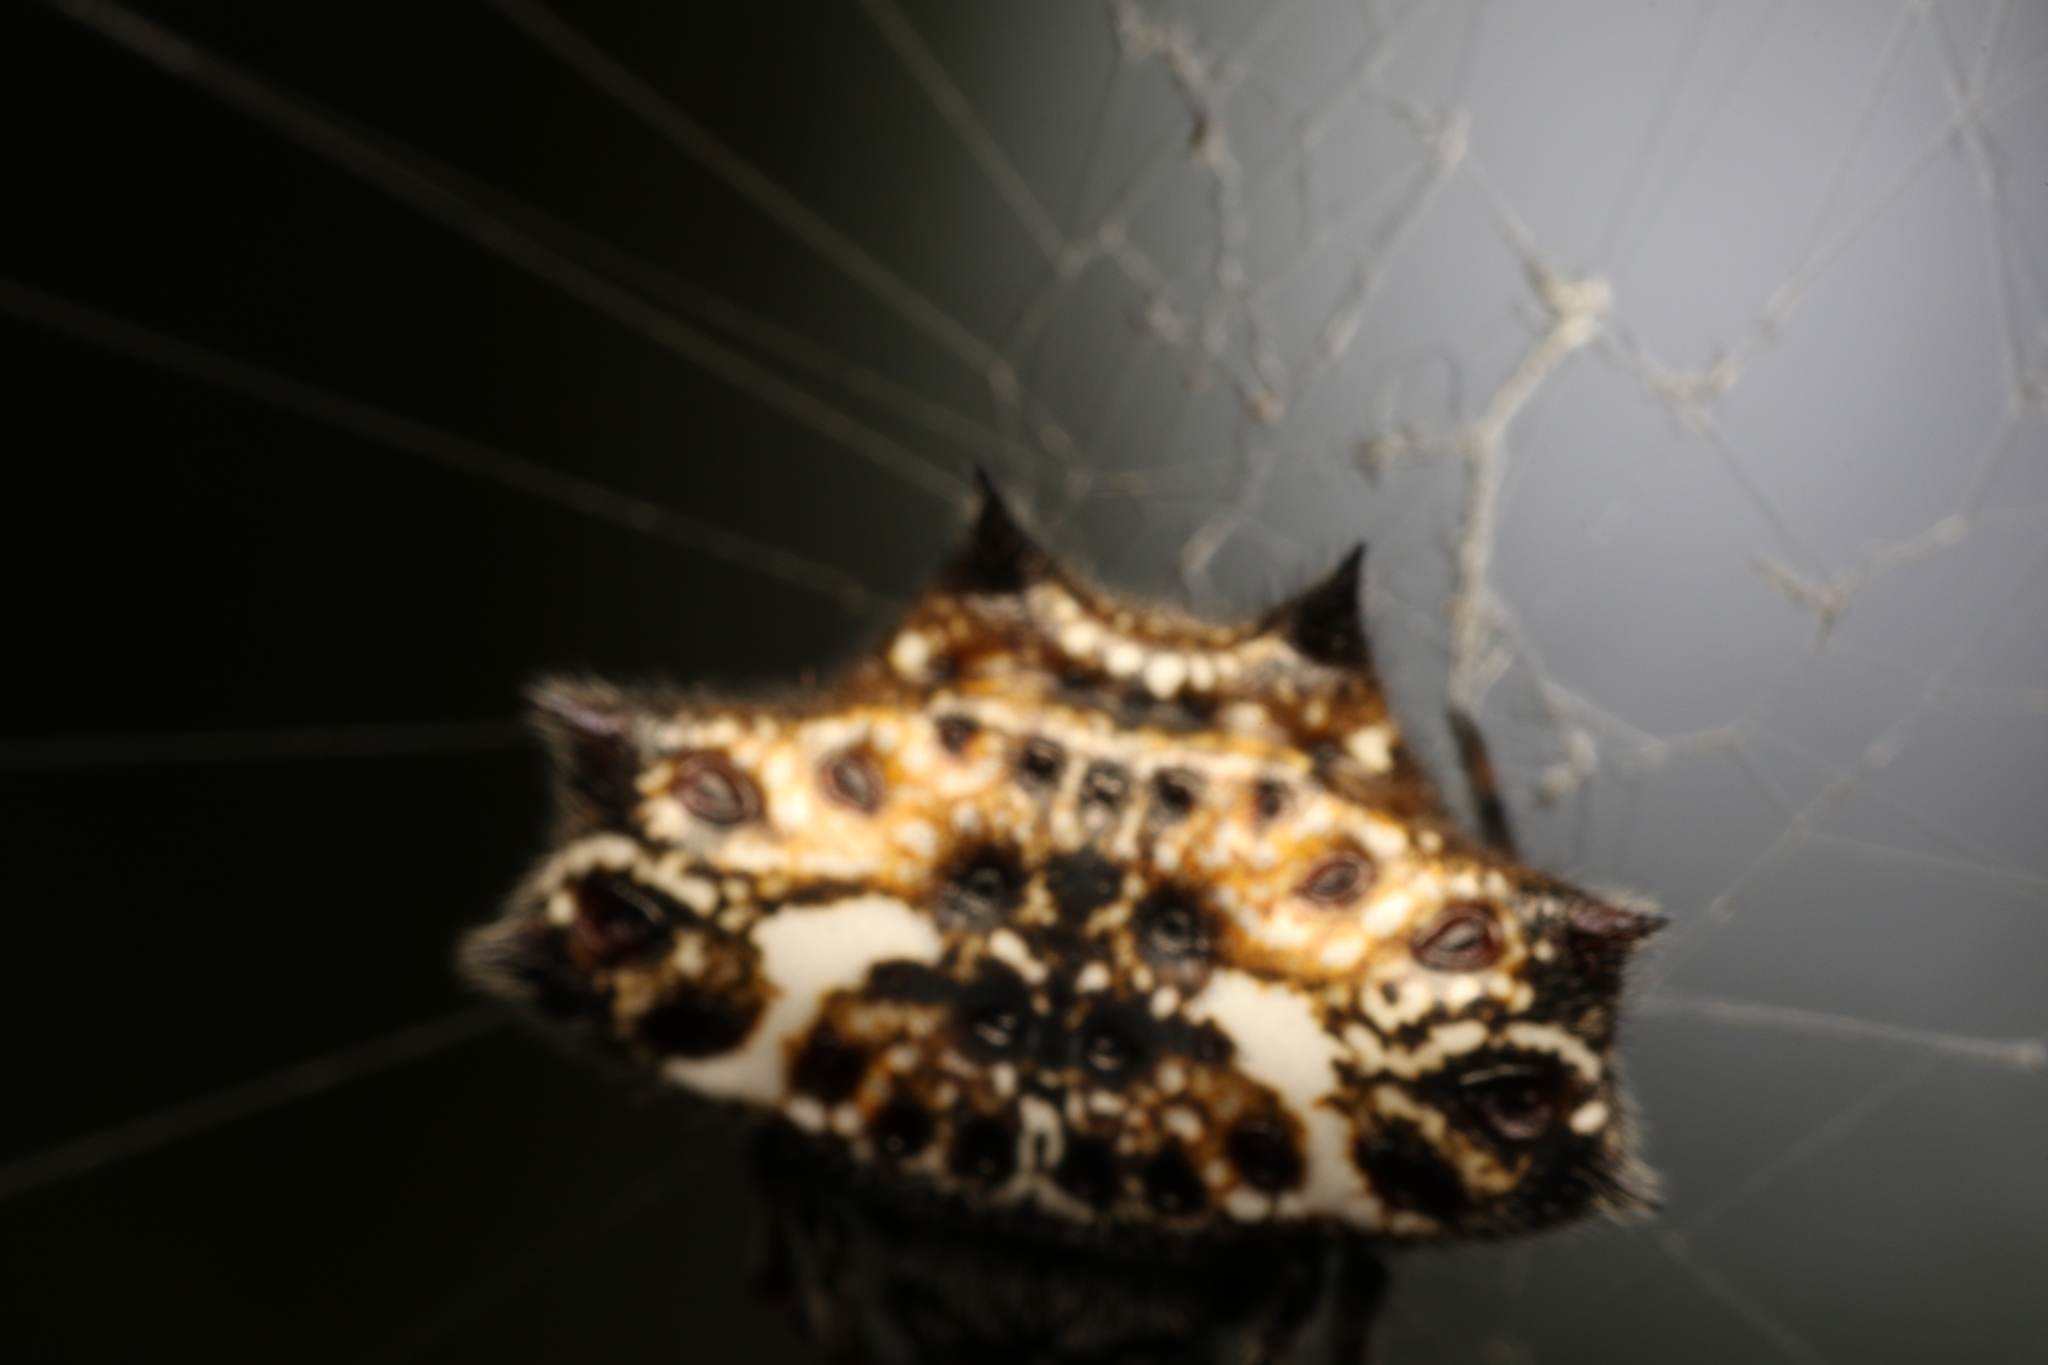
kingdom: Animalia
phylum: Arthropoda
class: Arachnida
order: Araneae
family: Araneidae
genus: Gasteracantha
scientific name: Gasteracantha cancriformis
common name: Orb weavers
